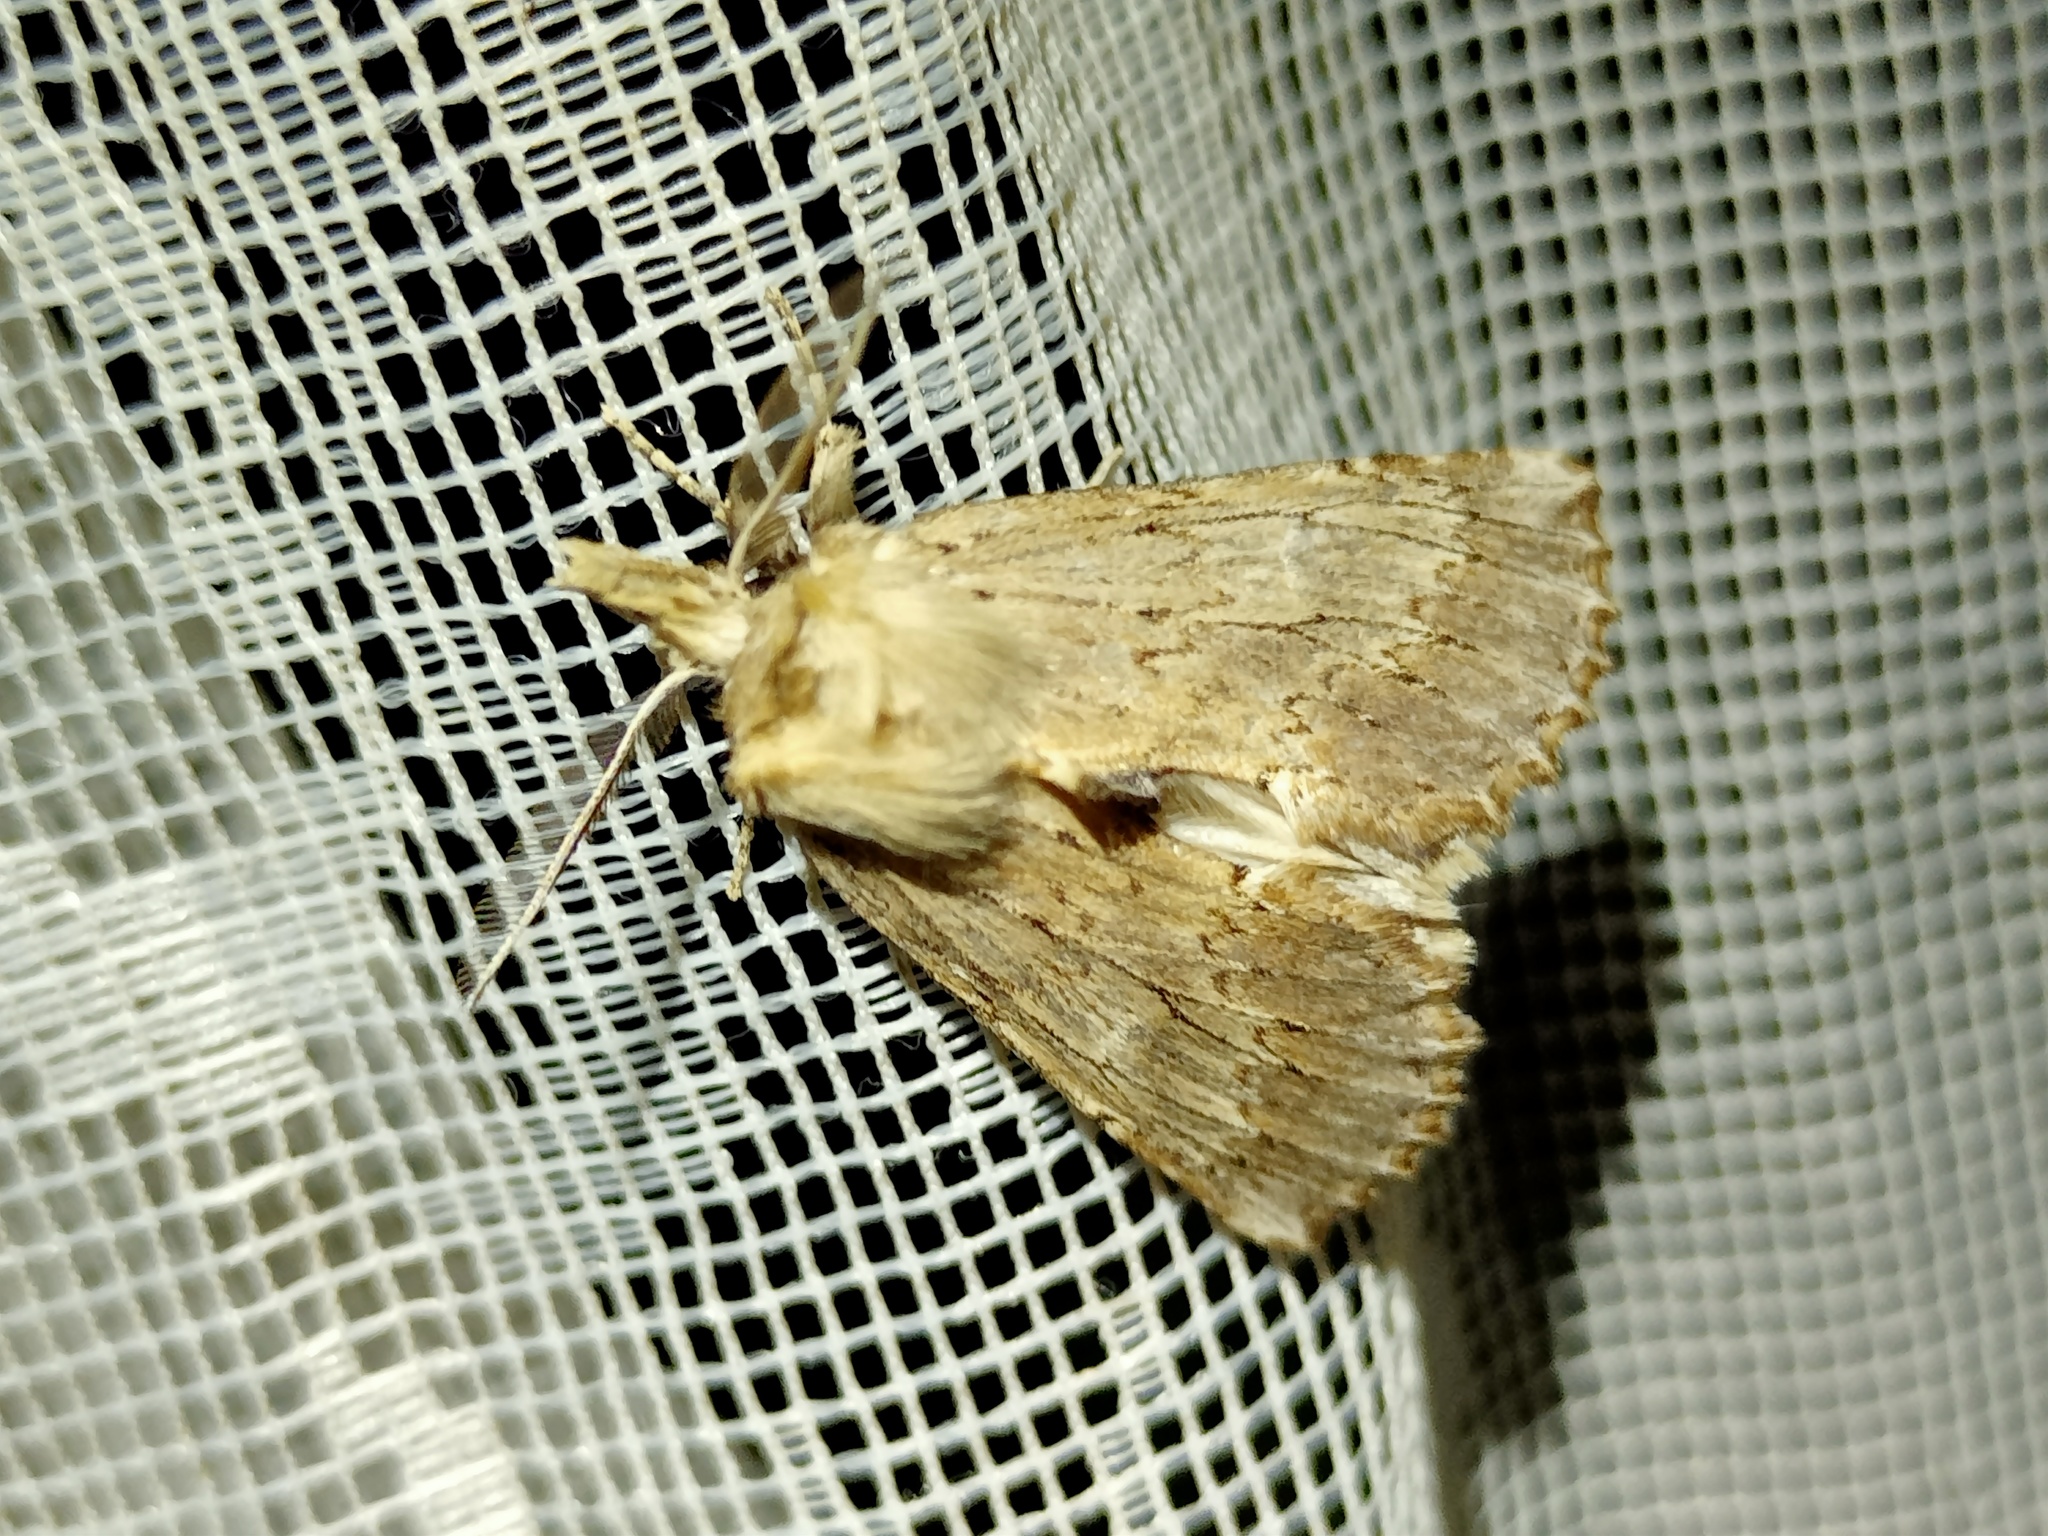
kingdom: Animalia
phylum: Arthropoda
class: Insecta
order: Lepidoptera
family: Notodontidae
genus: Pterostoma
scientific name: Pterostoma palpina
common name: Pale prominent
